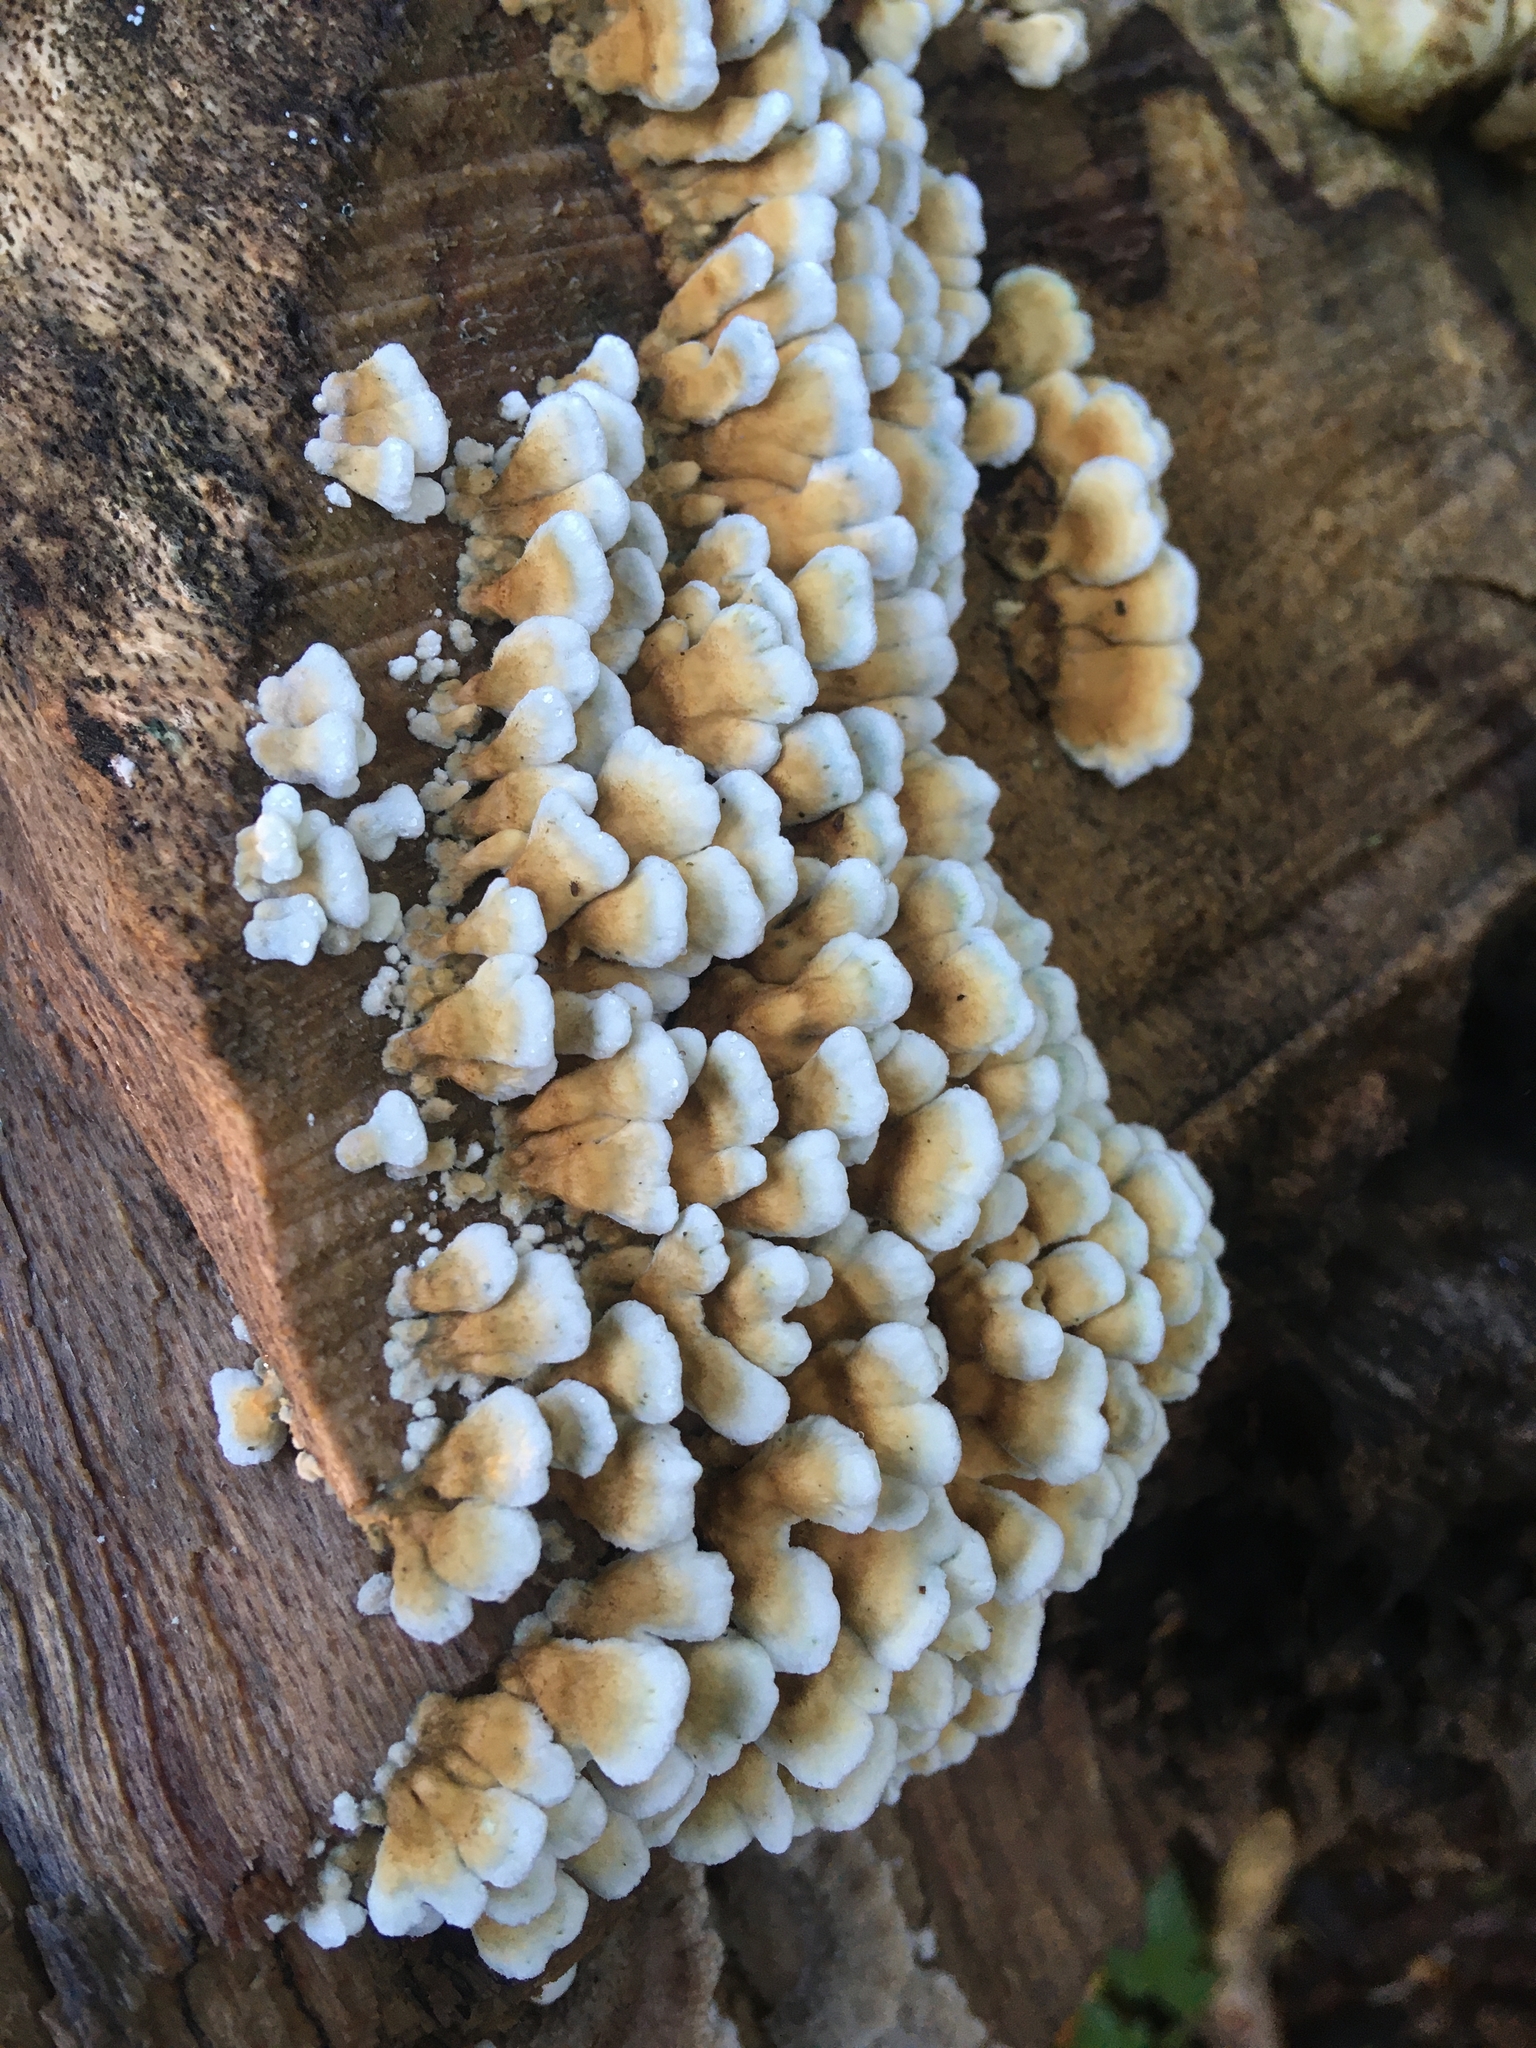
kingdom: Fungi
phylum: Basidiomycota
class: Agaricomycetes
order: Amylocorticiales
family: Amylocorticiaceae
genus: Plicaturopsis
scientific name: Plicaturopsis crispa
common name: Crimped gill
